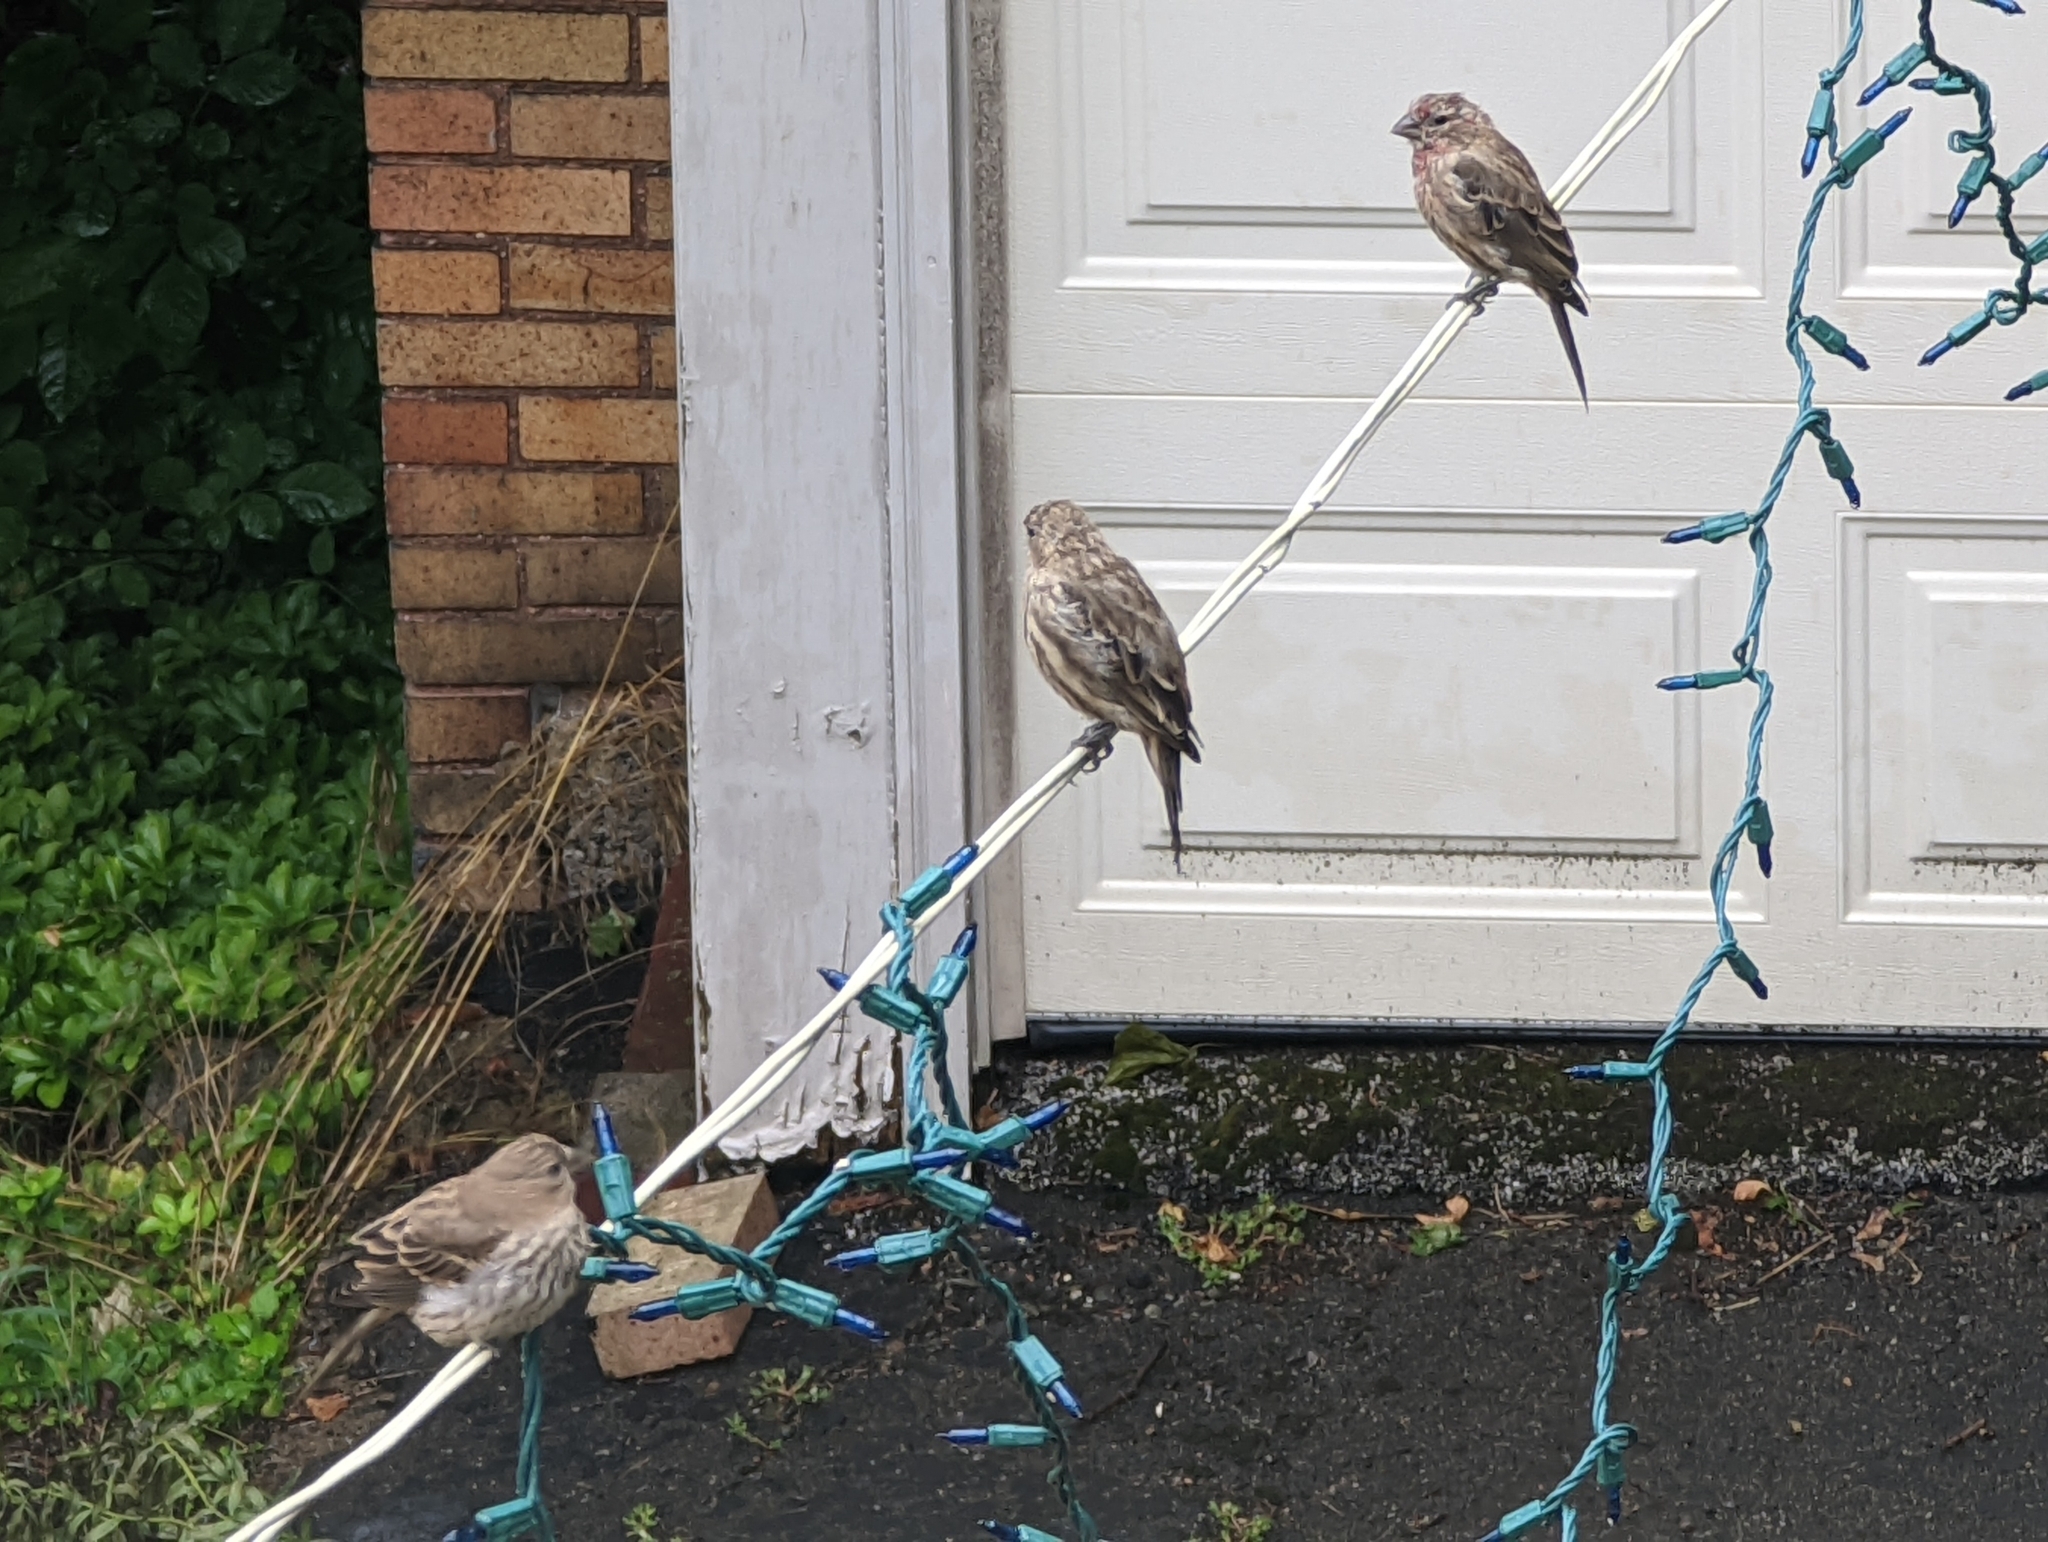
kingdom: Animalia
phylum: Chordata
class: Aves
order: Passeriformes
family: Fringillidae
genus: Haemorhous
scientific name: Haemorhous mexicanus
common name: House finch
